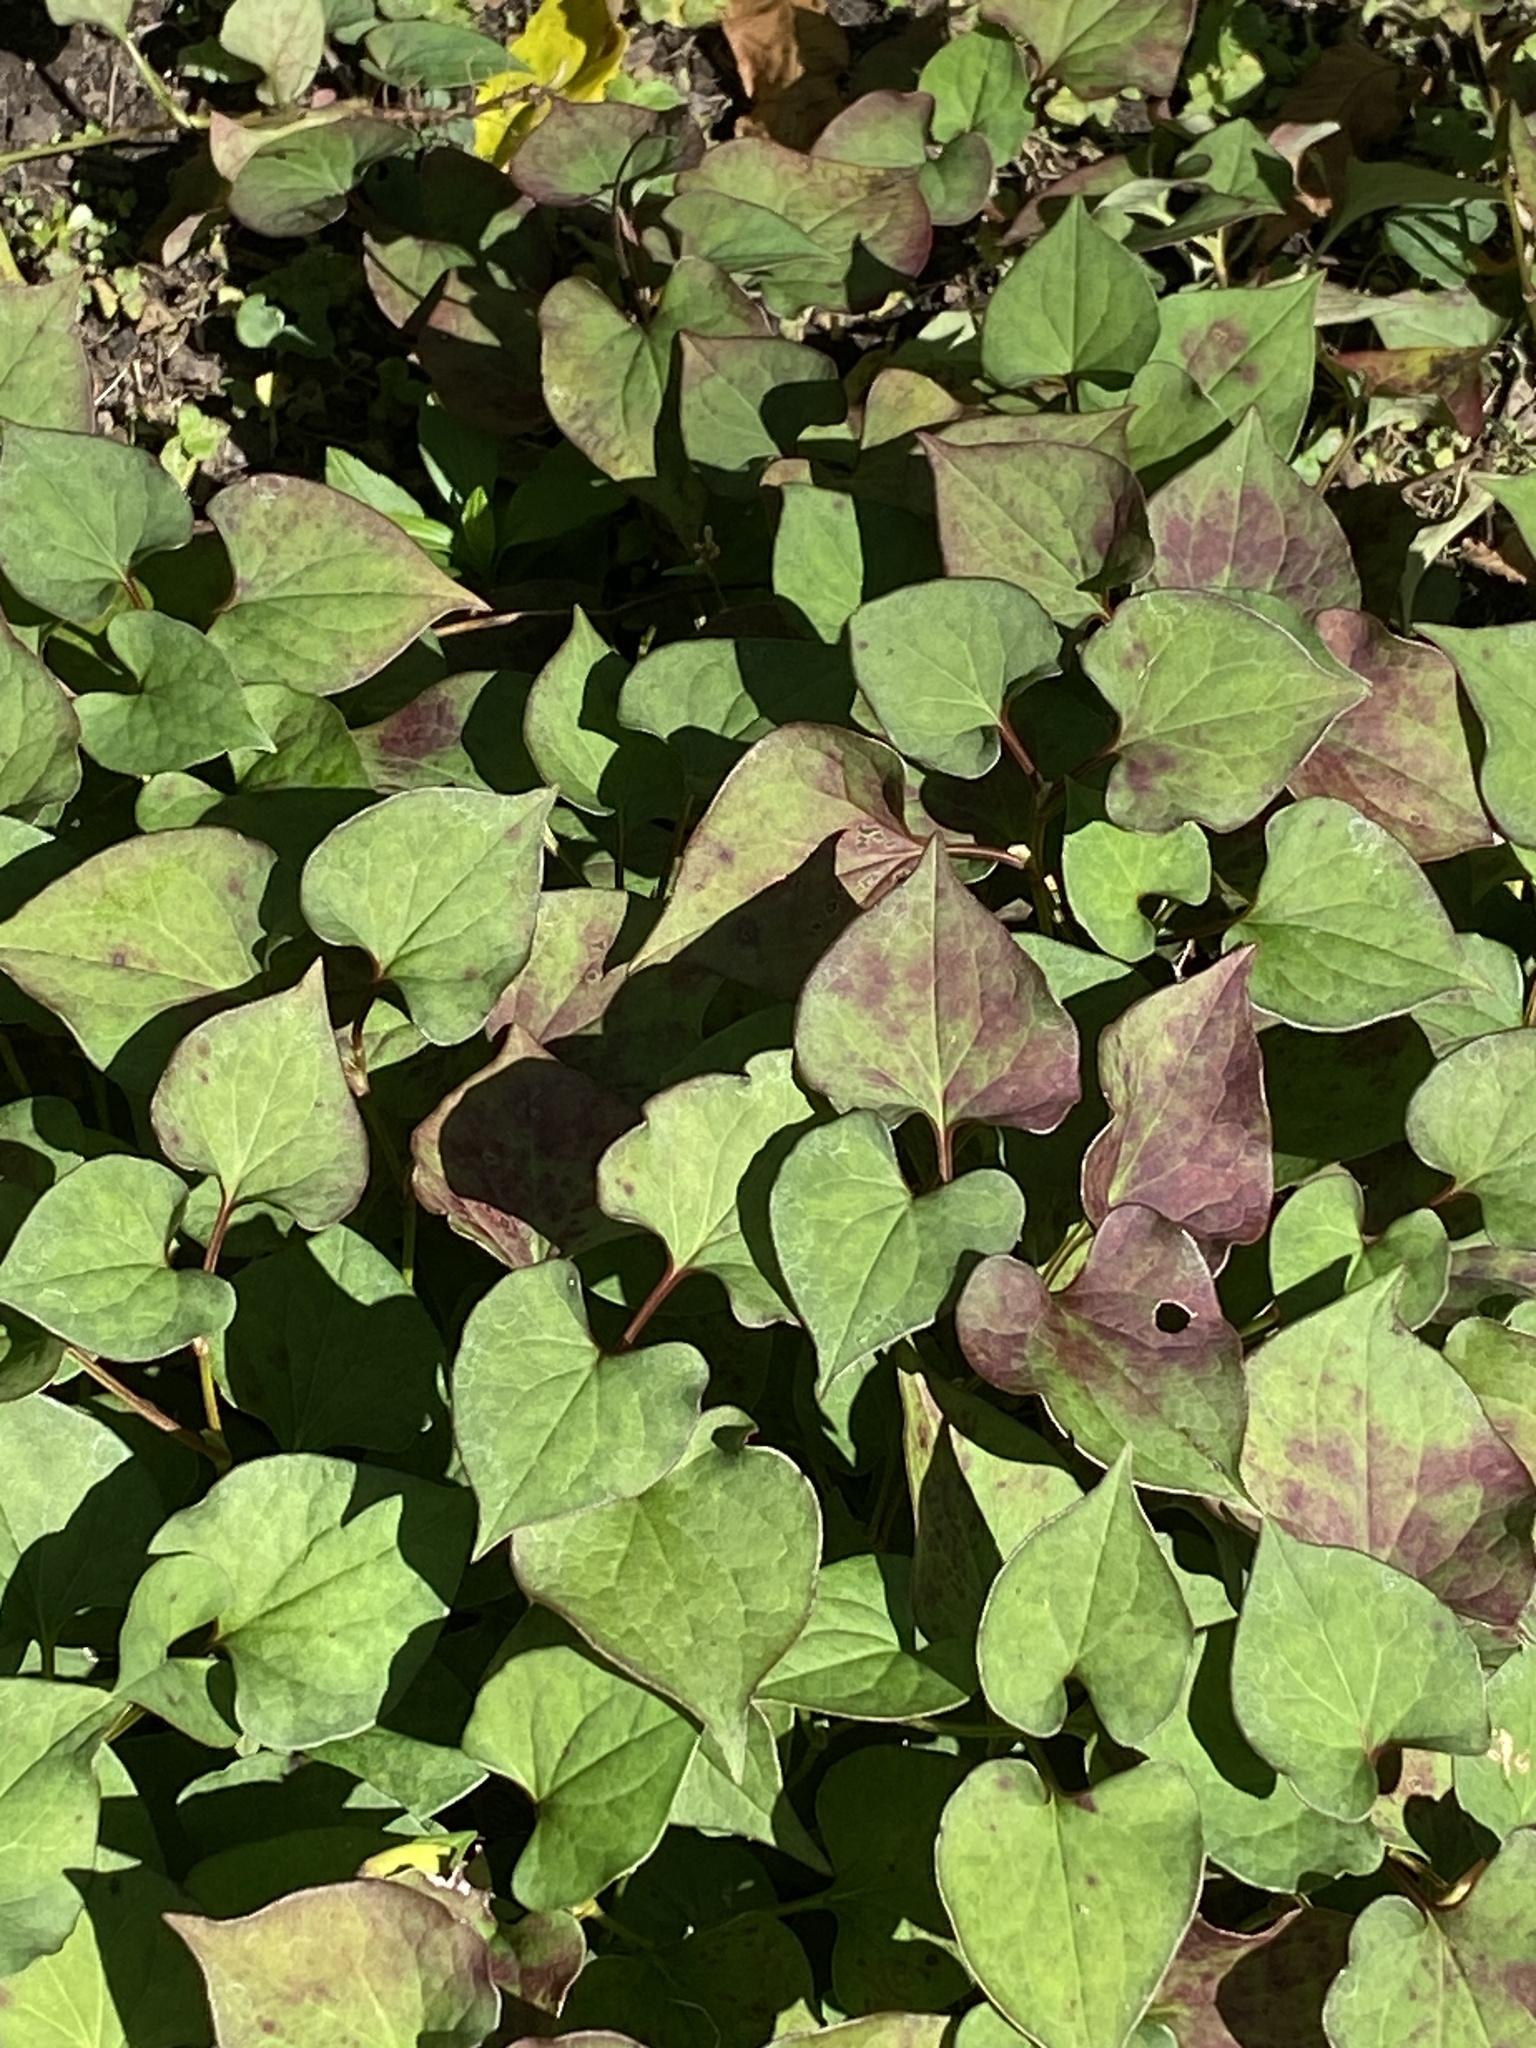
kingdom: Plantae
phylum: Tracheophyta
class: Magnoliopsida
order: Piperales
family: Saururaceae
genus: Houttuynia
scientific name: Houttuynia cordata
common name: Chameleon
